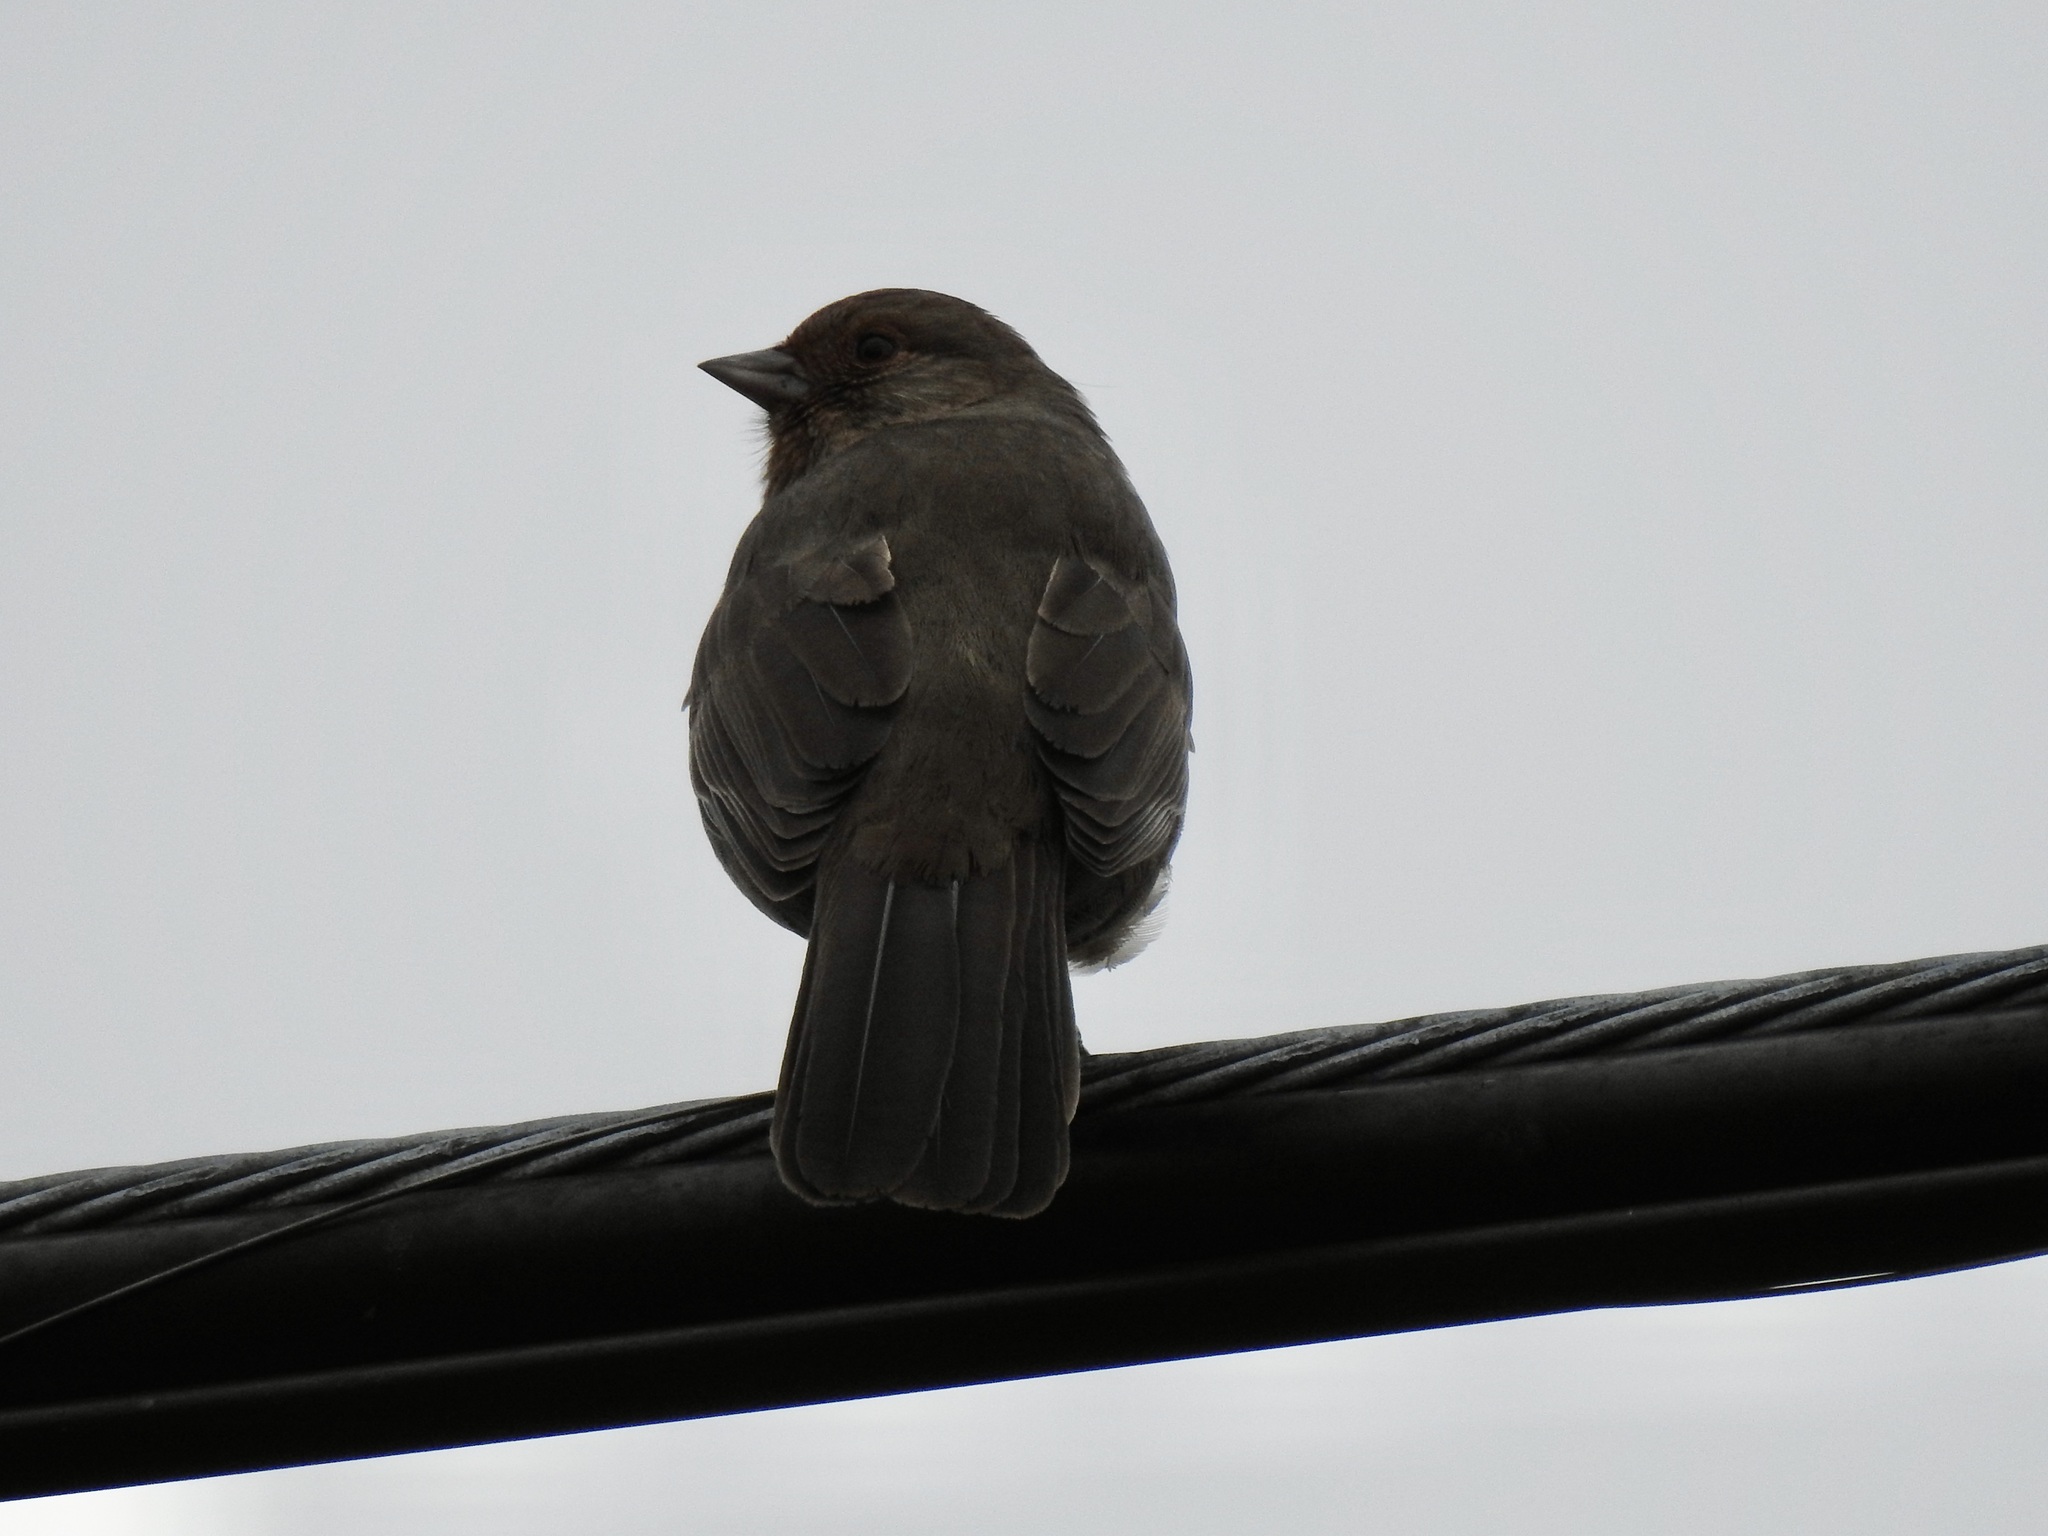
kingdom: Animalia
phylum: Chordata
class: Aves
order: Passeriformes
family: Passerellidae
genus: Melozone
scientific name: Melozone crissalis
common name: California towhee
